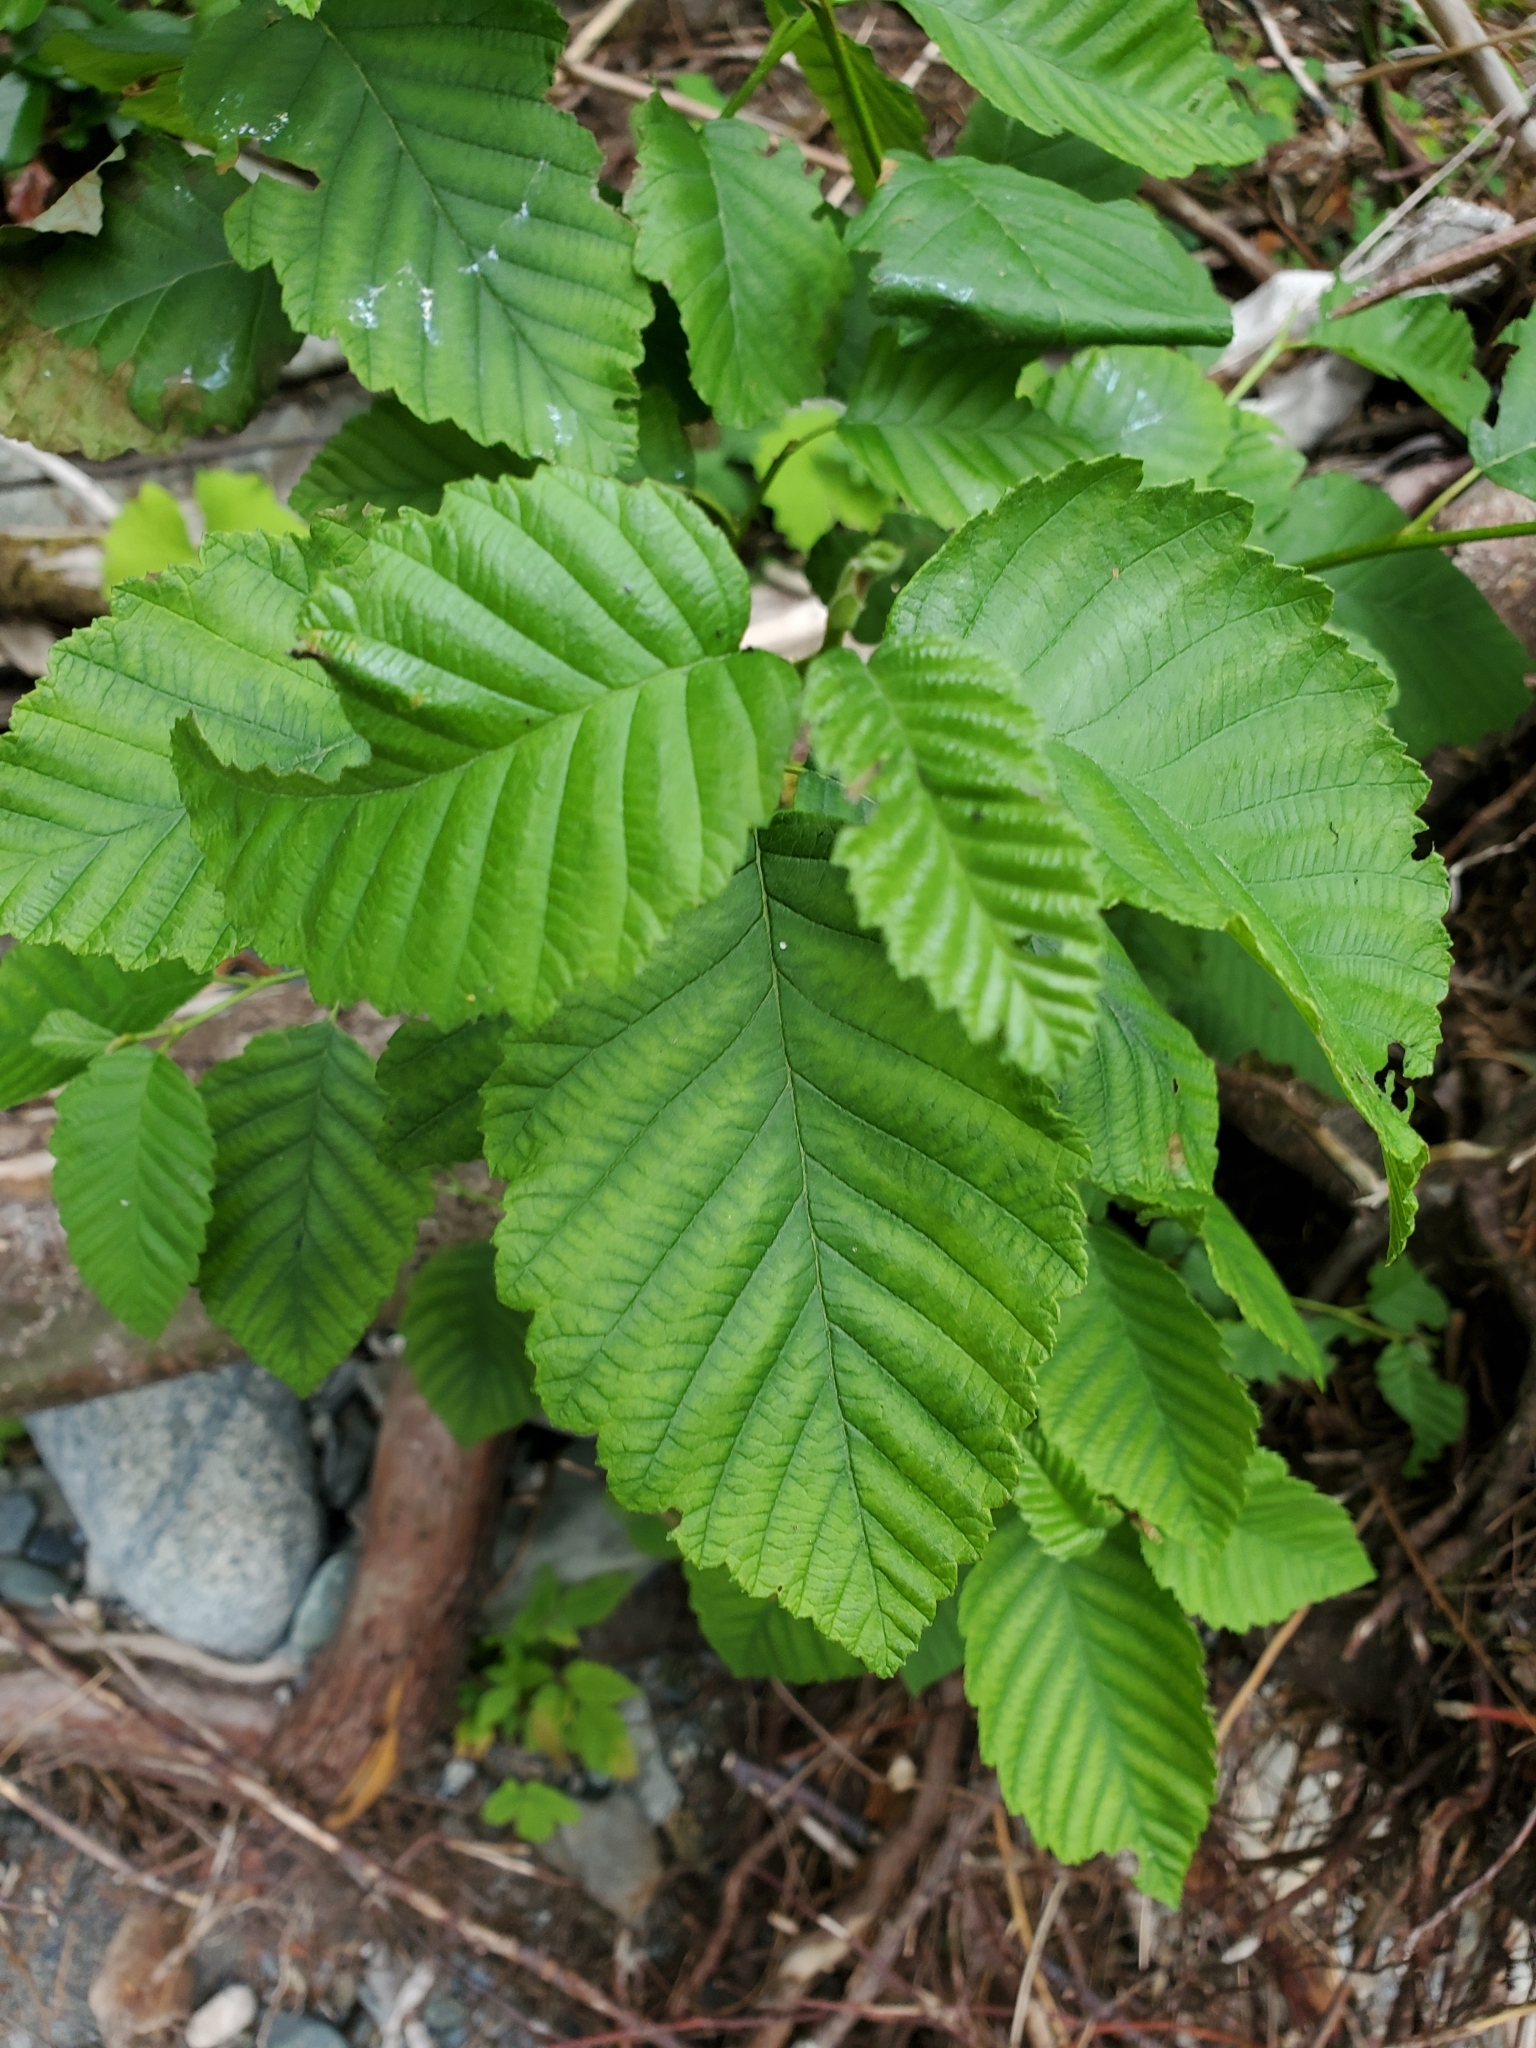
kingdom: Plantae
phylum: Tracheophyta
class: Magnoliopsida
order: Fagales
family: Betulaceae
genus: Alnus
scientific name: Alnus rubra
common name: Red alder
